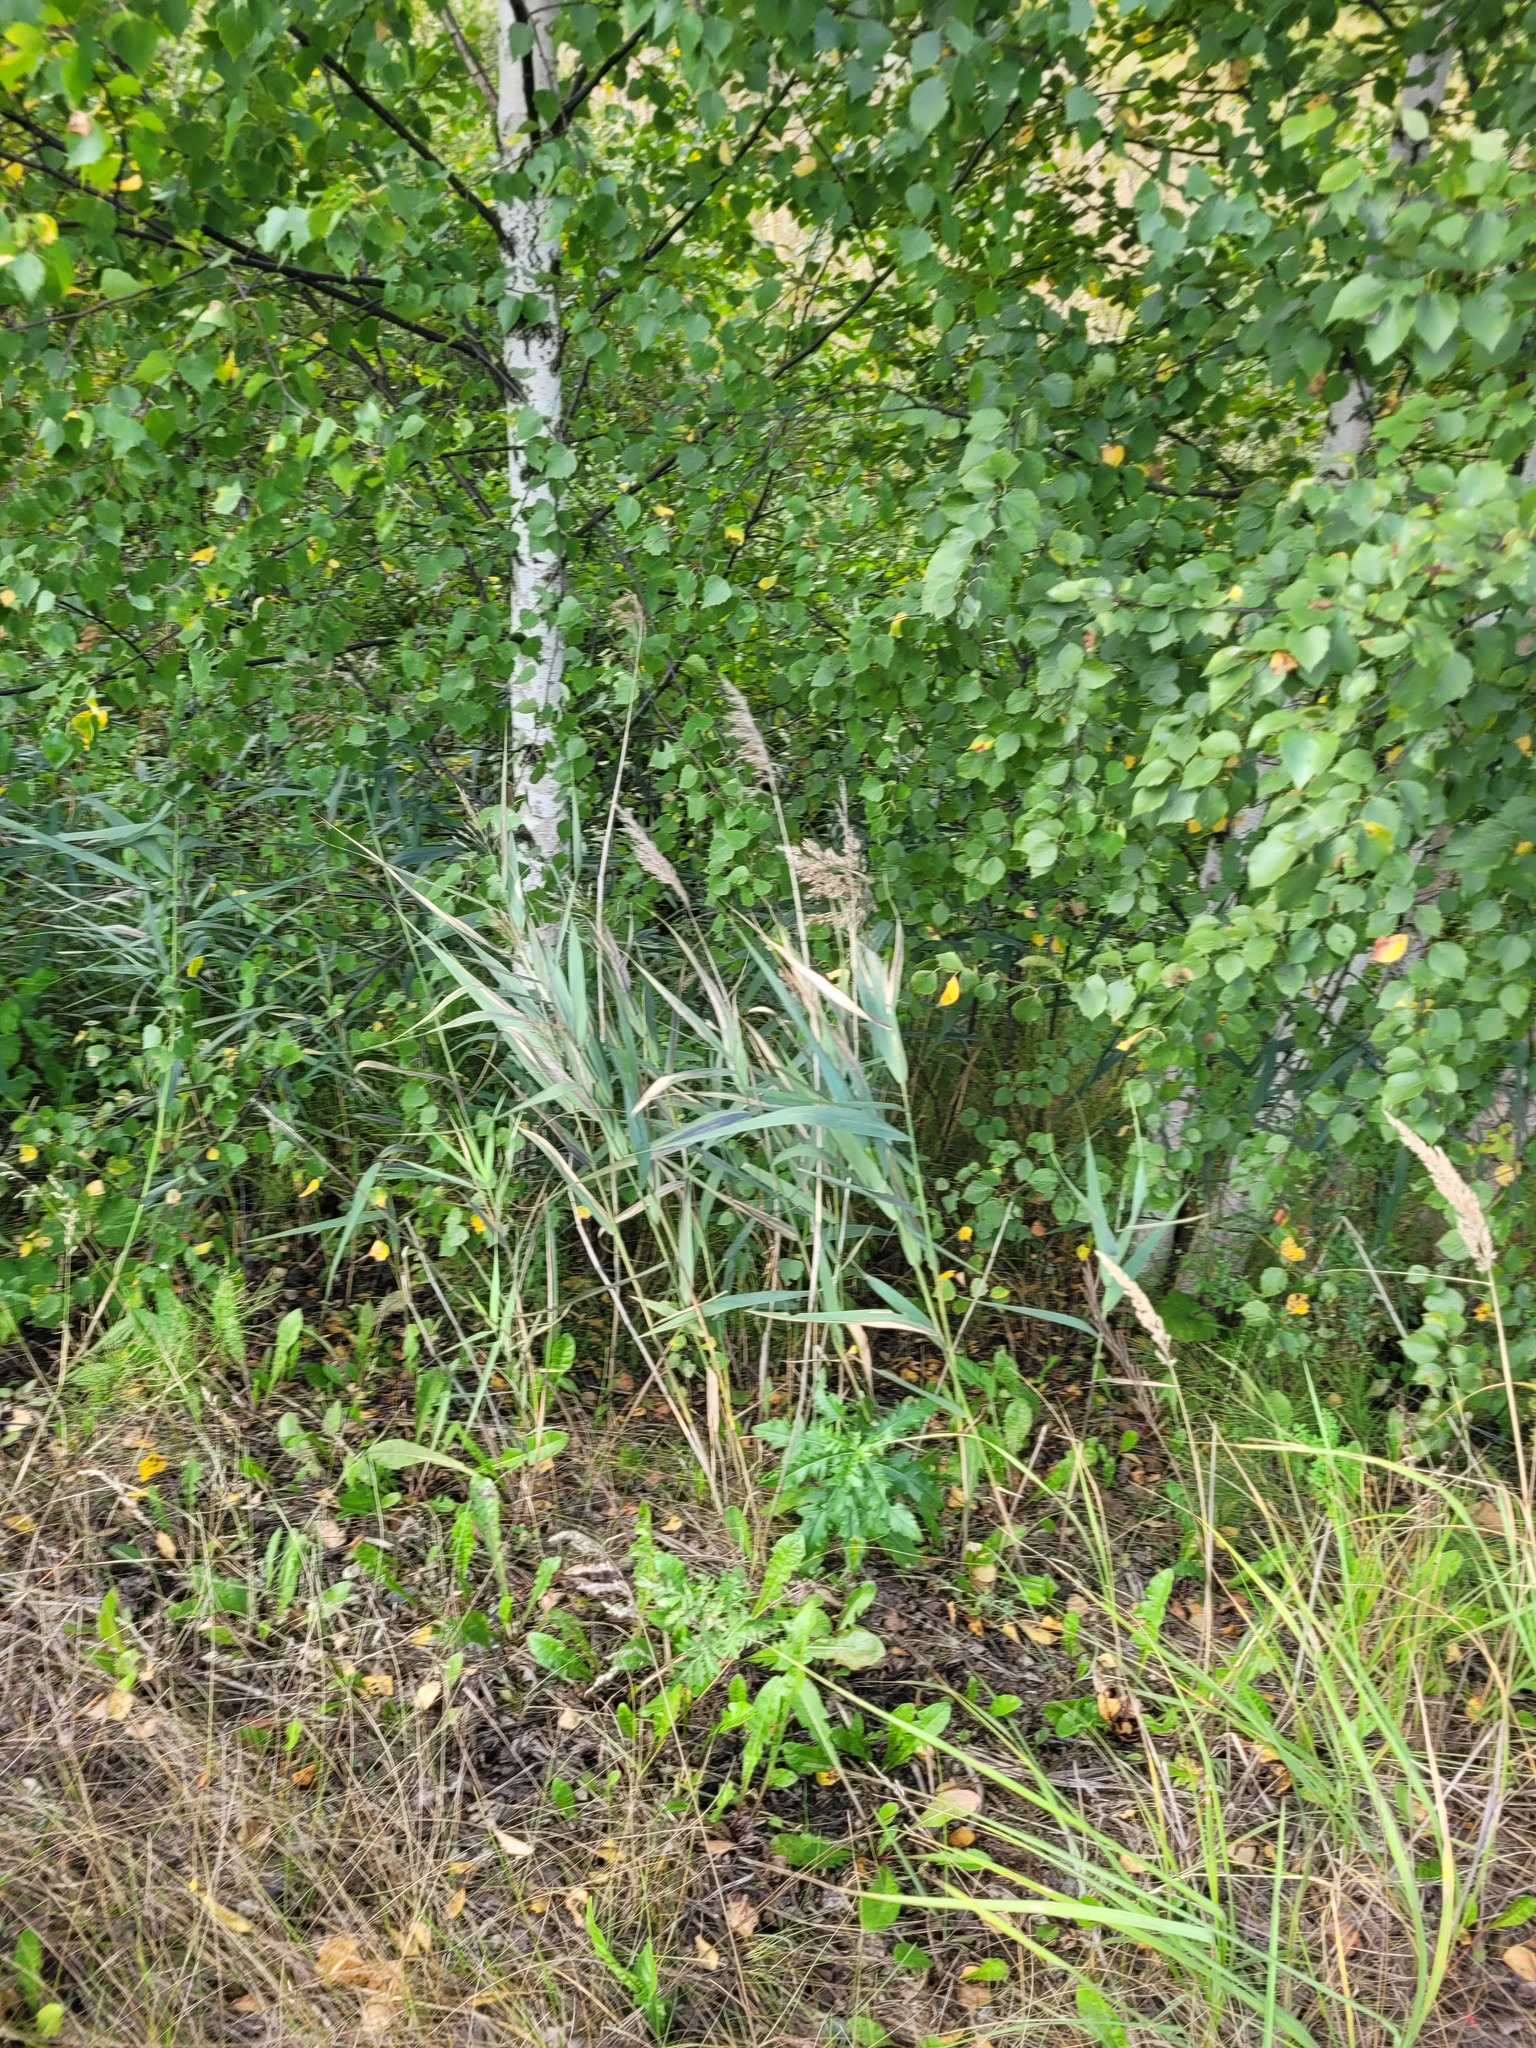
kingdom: Plantae
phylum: Tracheophyta
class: Liliopsida
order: Poales
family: Poaceae
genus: Phragmites
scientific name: Phragmites australis
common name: Common reed
